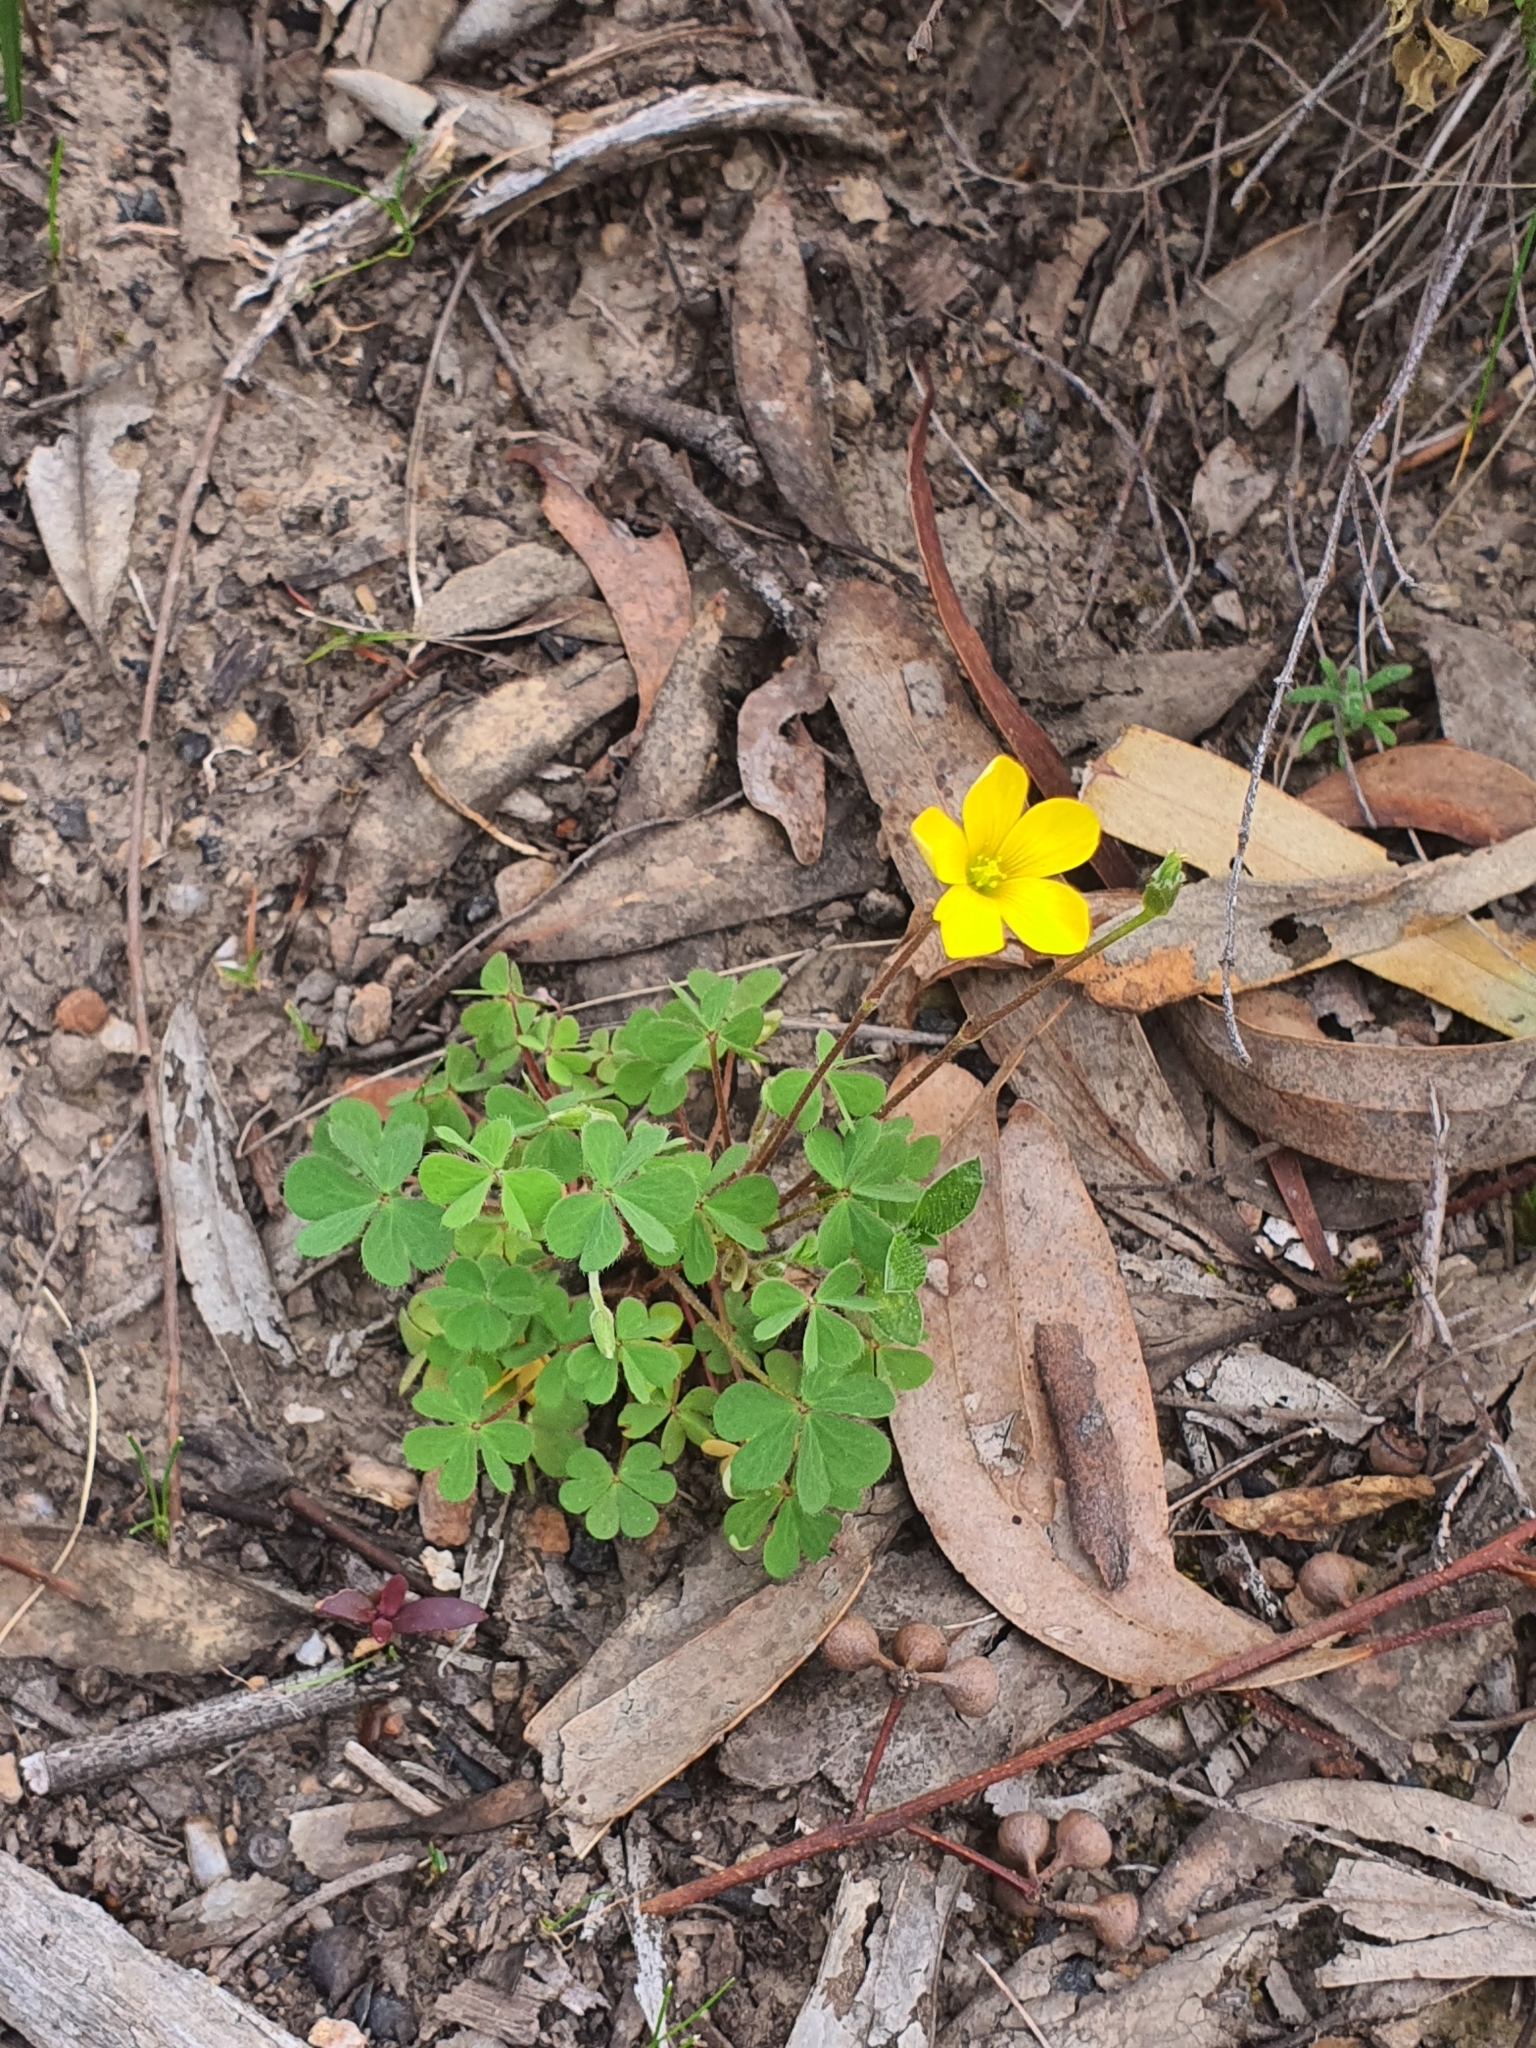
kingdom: Plantae
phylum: Tracheophyta
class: Magnoliopsida
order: Oxalidales
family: Oxalidaceae
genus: Oxalis
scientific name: Oxalis
